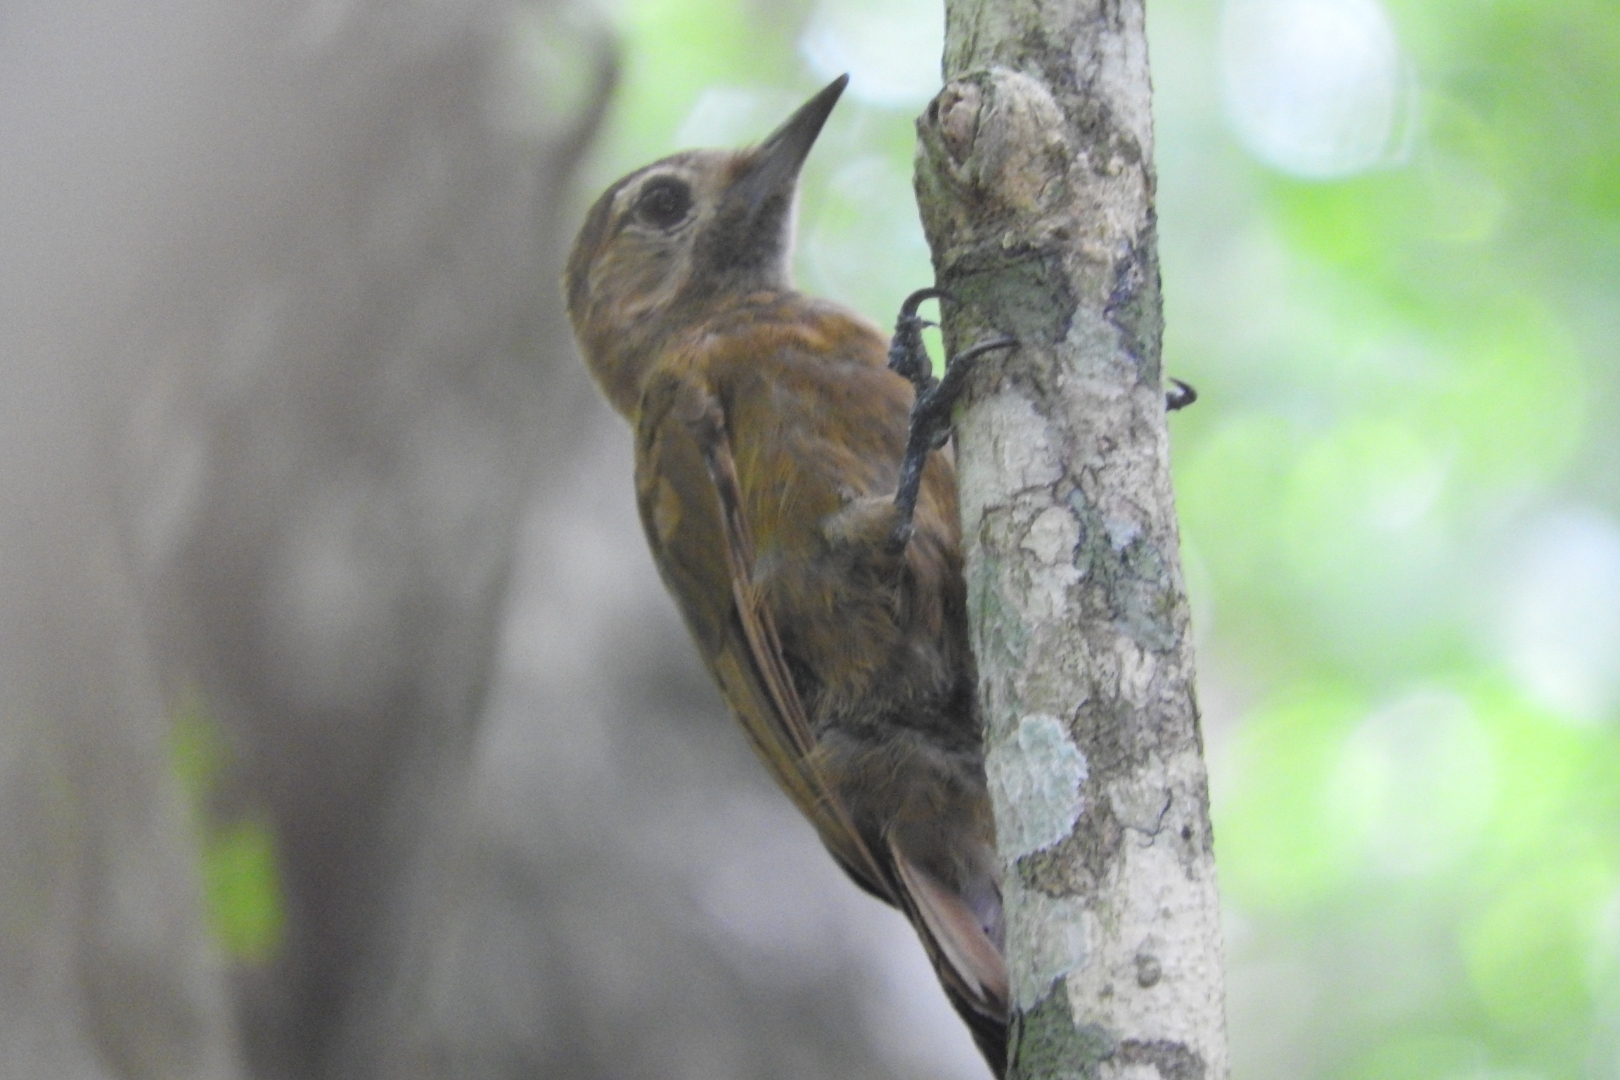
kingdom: Animalia
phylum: Chordata
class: Aves
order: Piciformes
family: Picidae
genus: Leuconotopicus
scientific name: Leuconotopicus fumigatus
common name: Smoky-brown woodpecker
